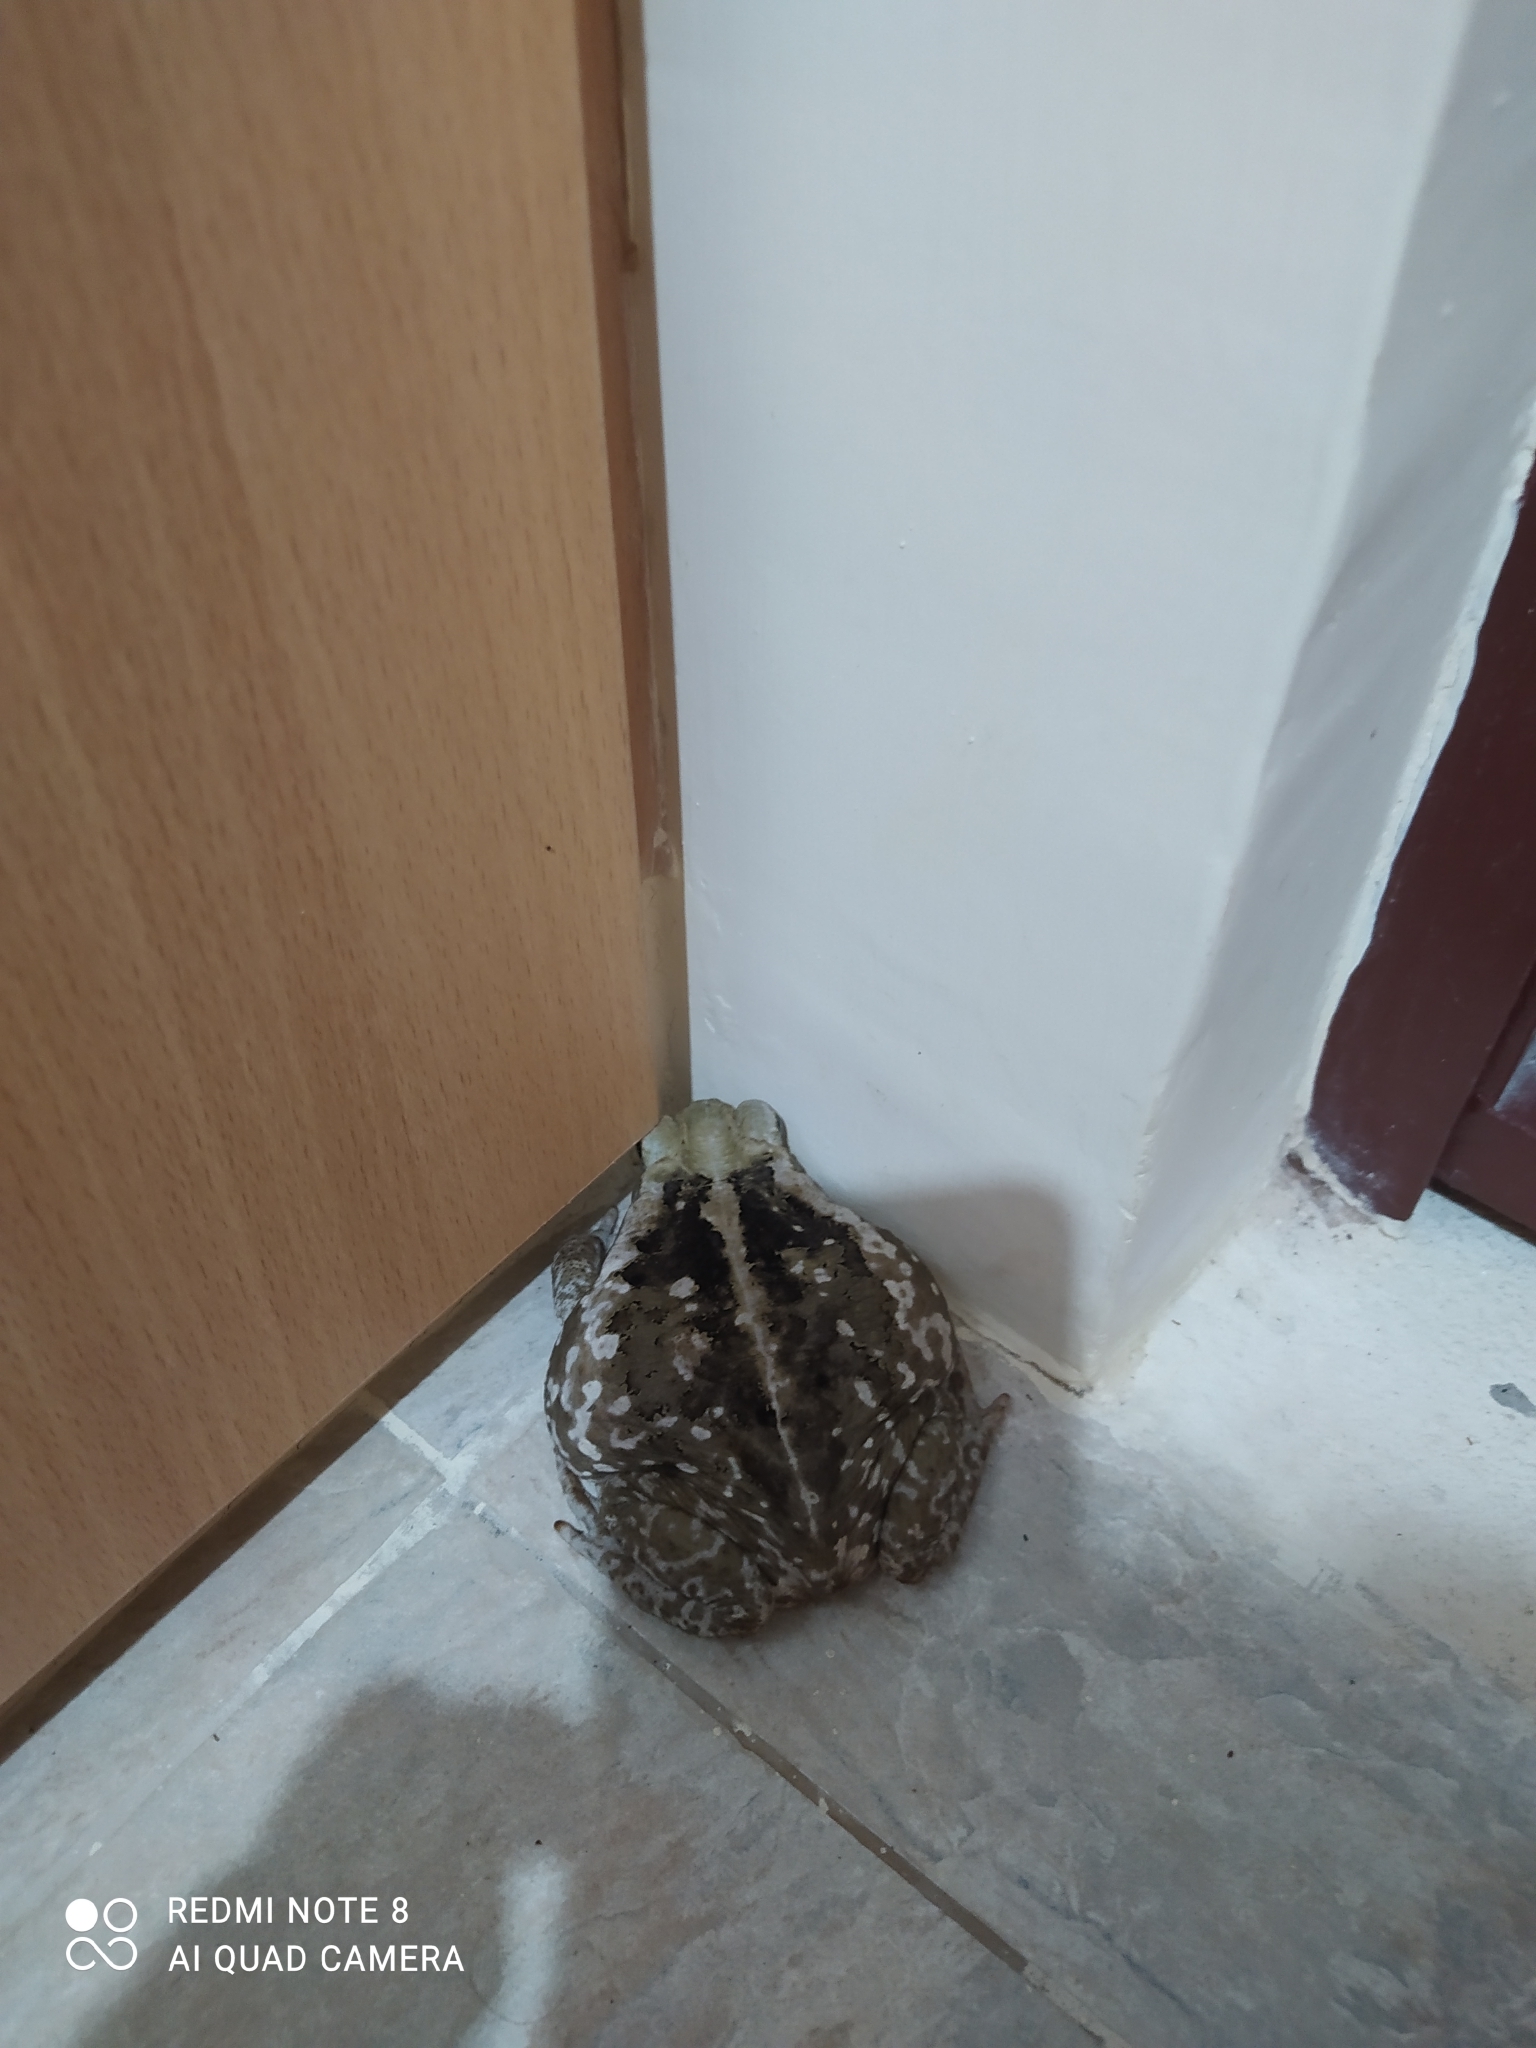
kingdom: Animalia
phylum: Chordata
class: Amphibia
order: Anura
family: Bufonidae
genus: Rhinella
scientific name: Rhinella
